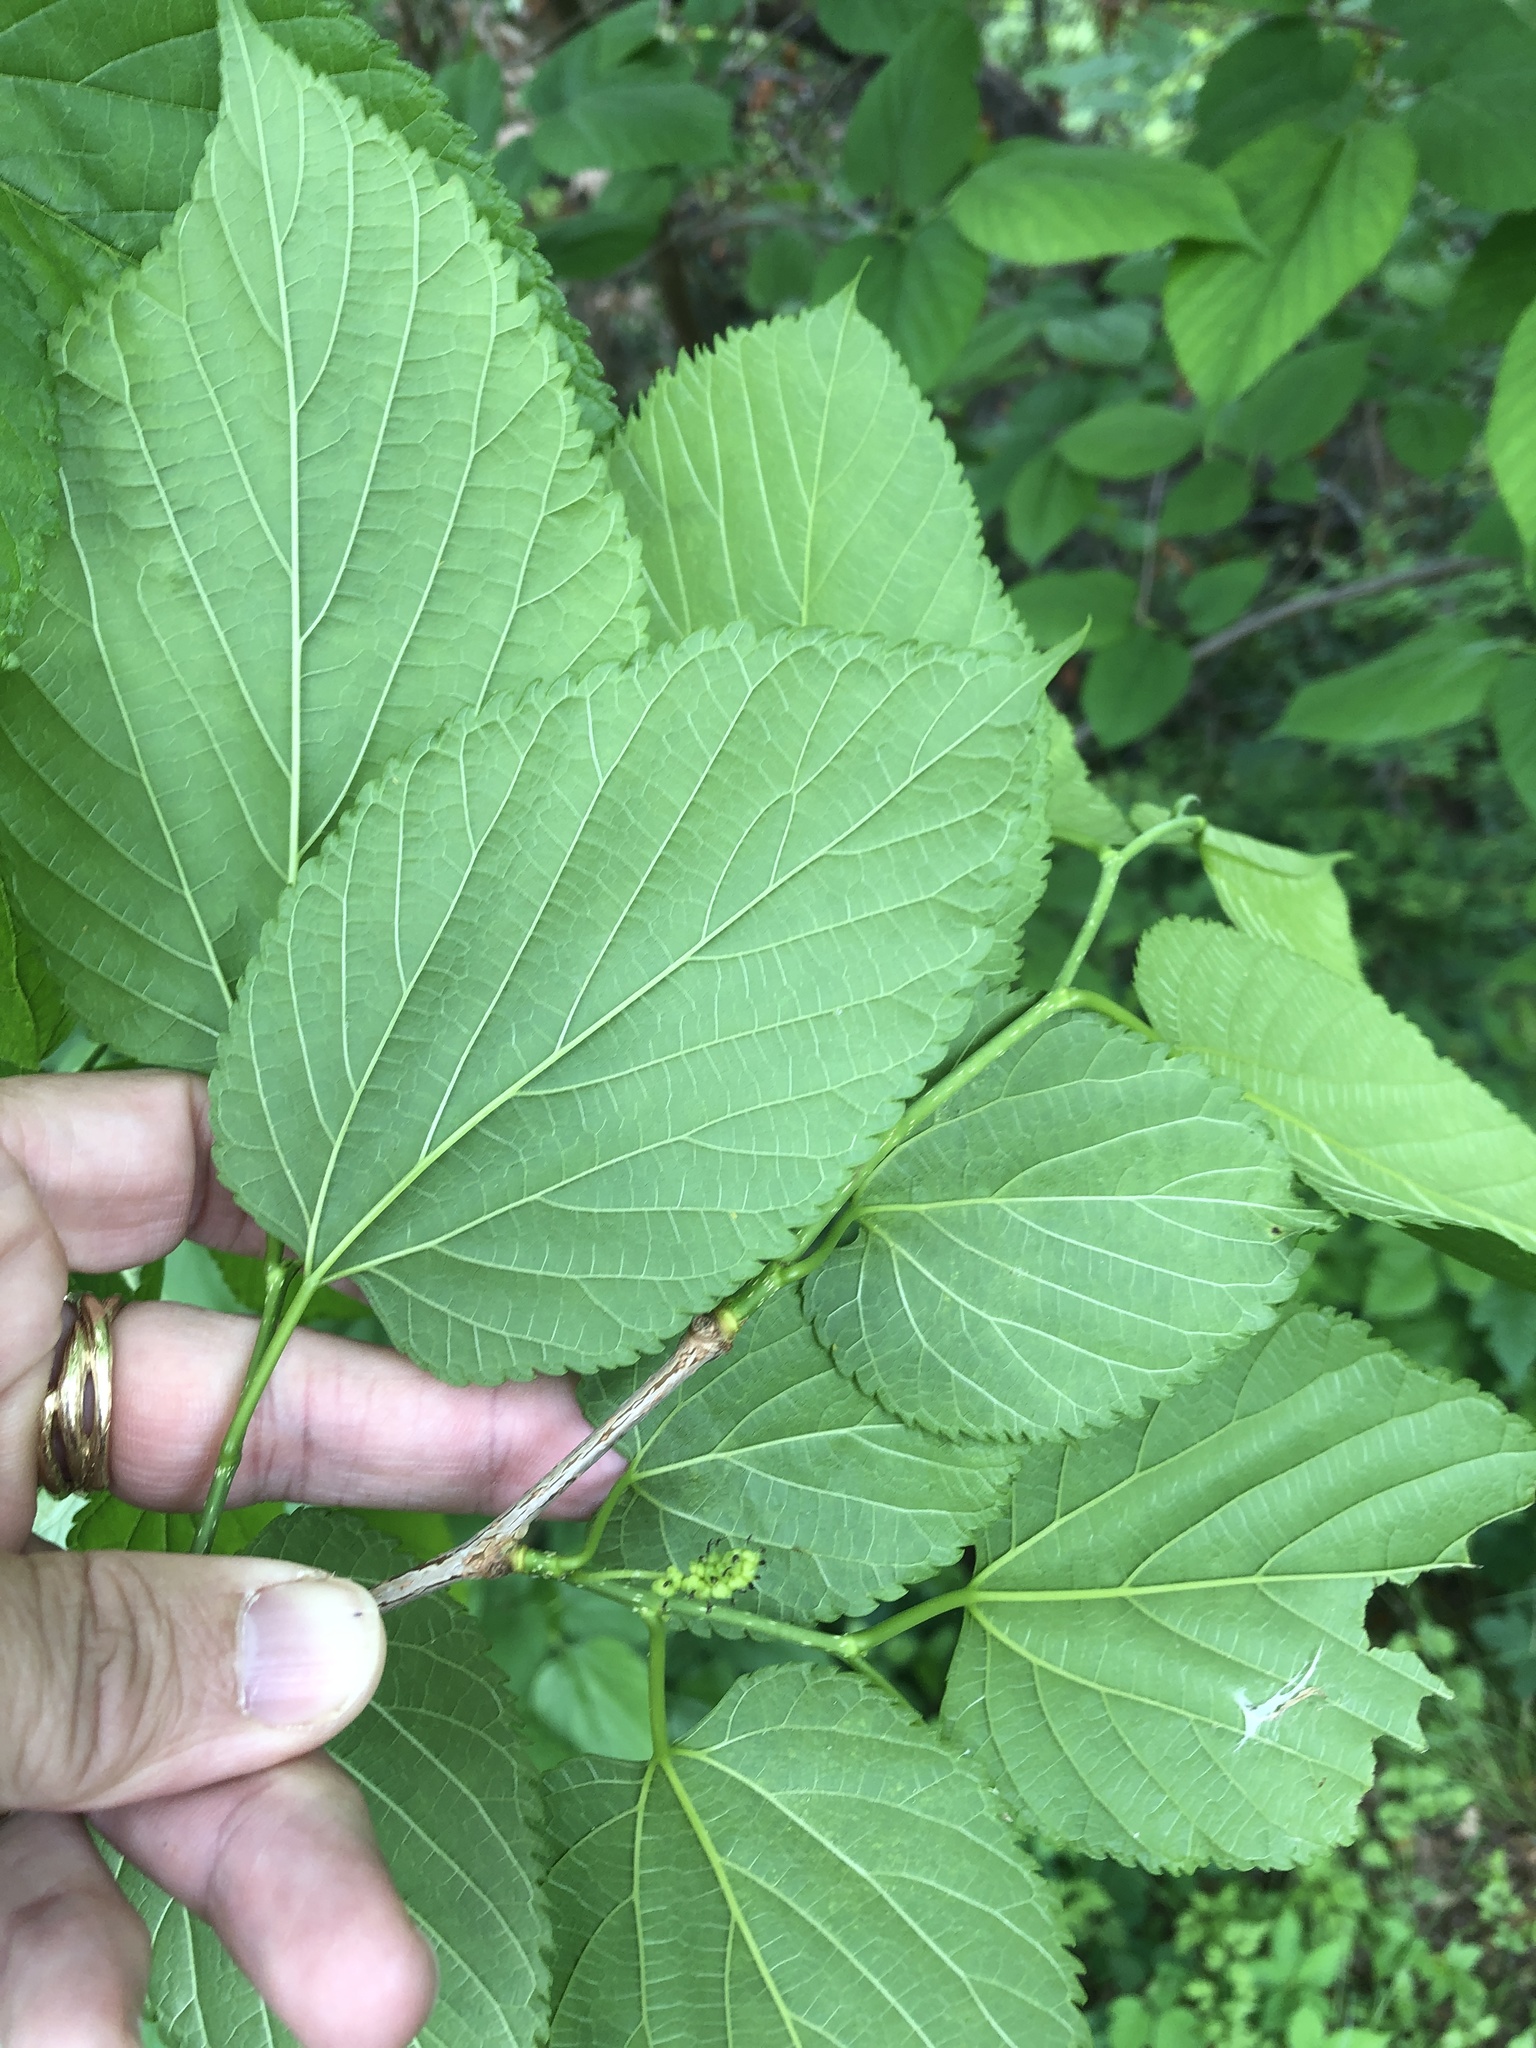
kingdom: Plantae
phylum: Tracheophyta
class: Magnoliopsida
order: Rosales
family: Moraceae
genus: Morus
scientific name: Morus rubra
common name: Red mulberry
